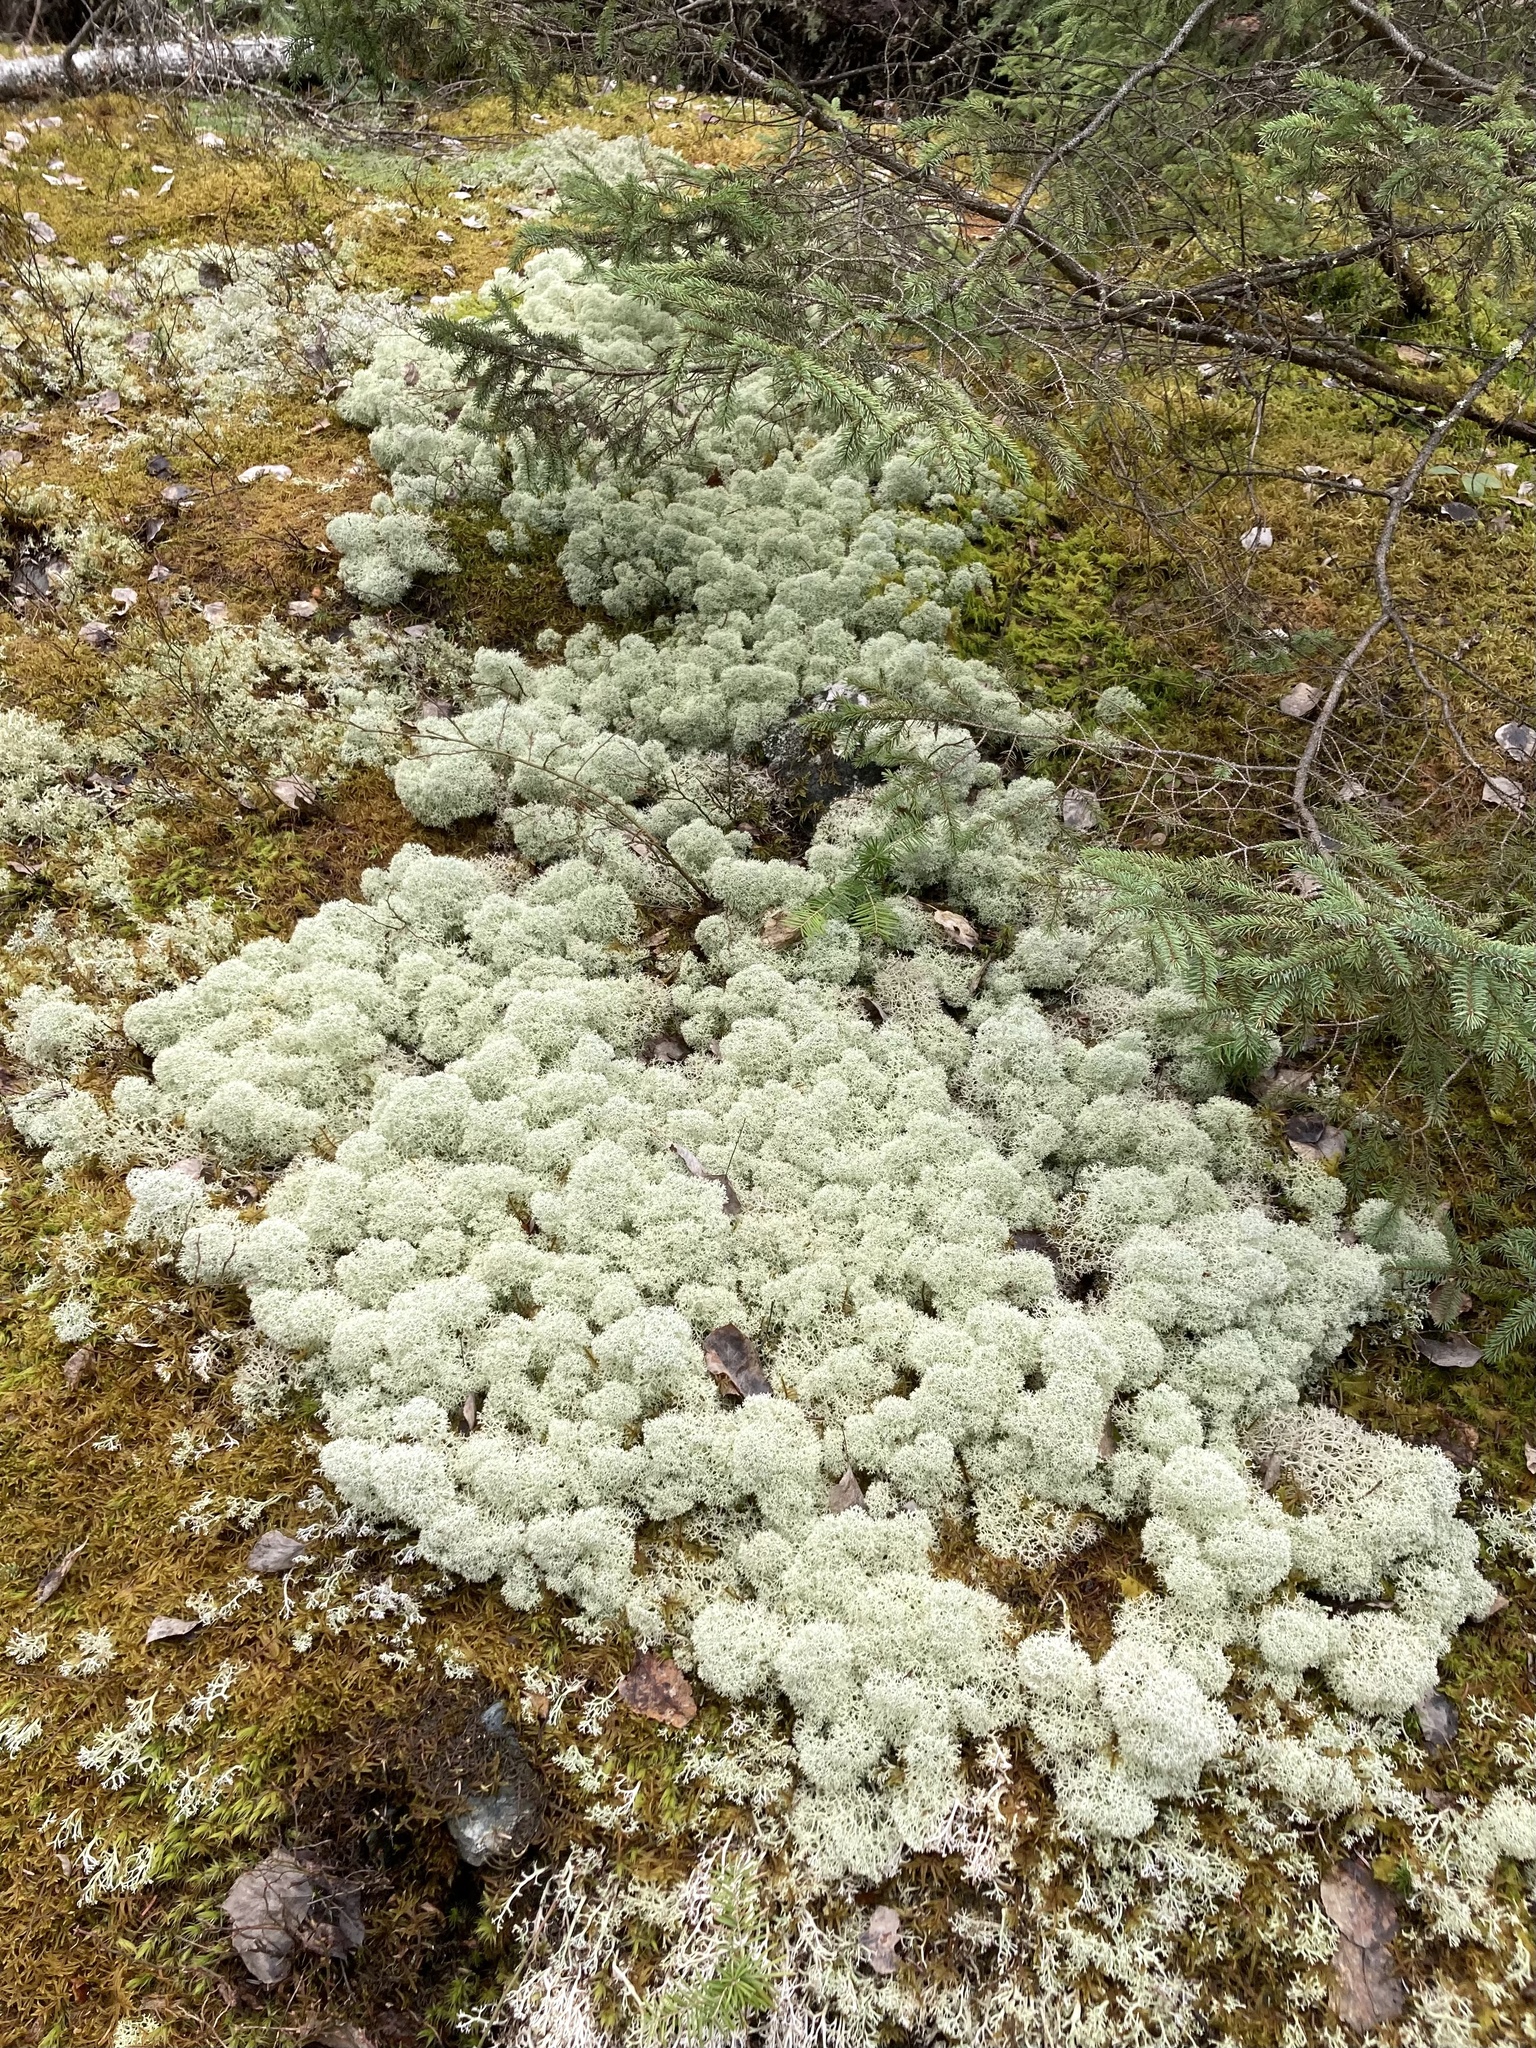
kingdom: Fungi
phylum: Ascomycota
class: Lecanoromycetes
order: Lecanorales
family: Cladoniaceae
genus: Cladonia
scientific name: Cladonia stellaris
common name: Star-tipped reindeer lichen
